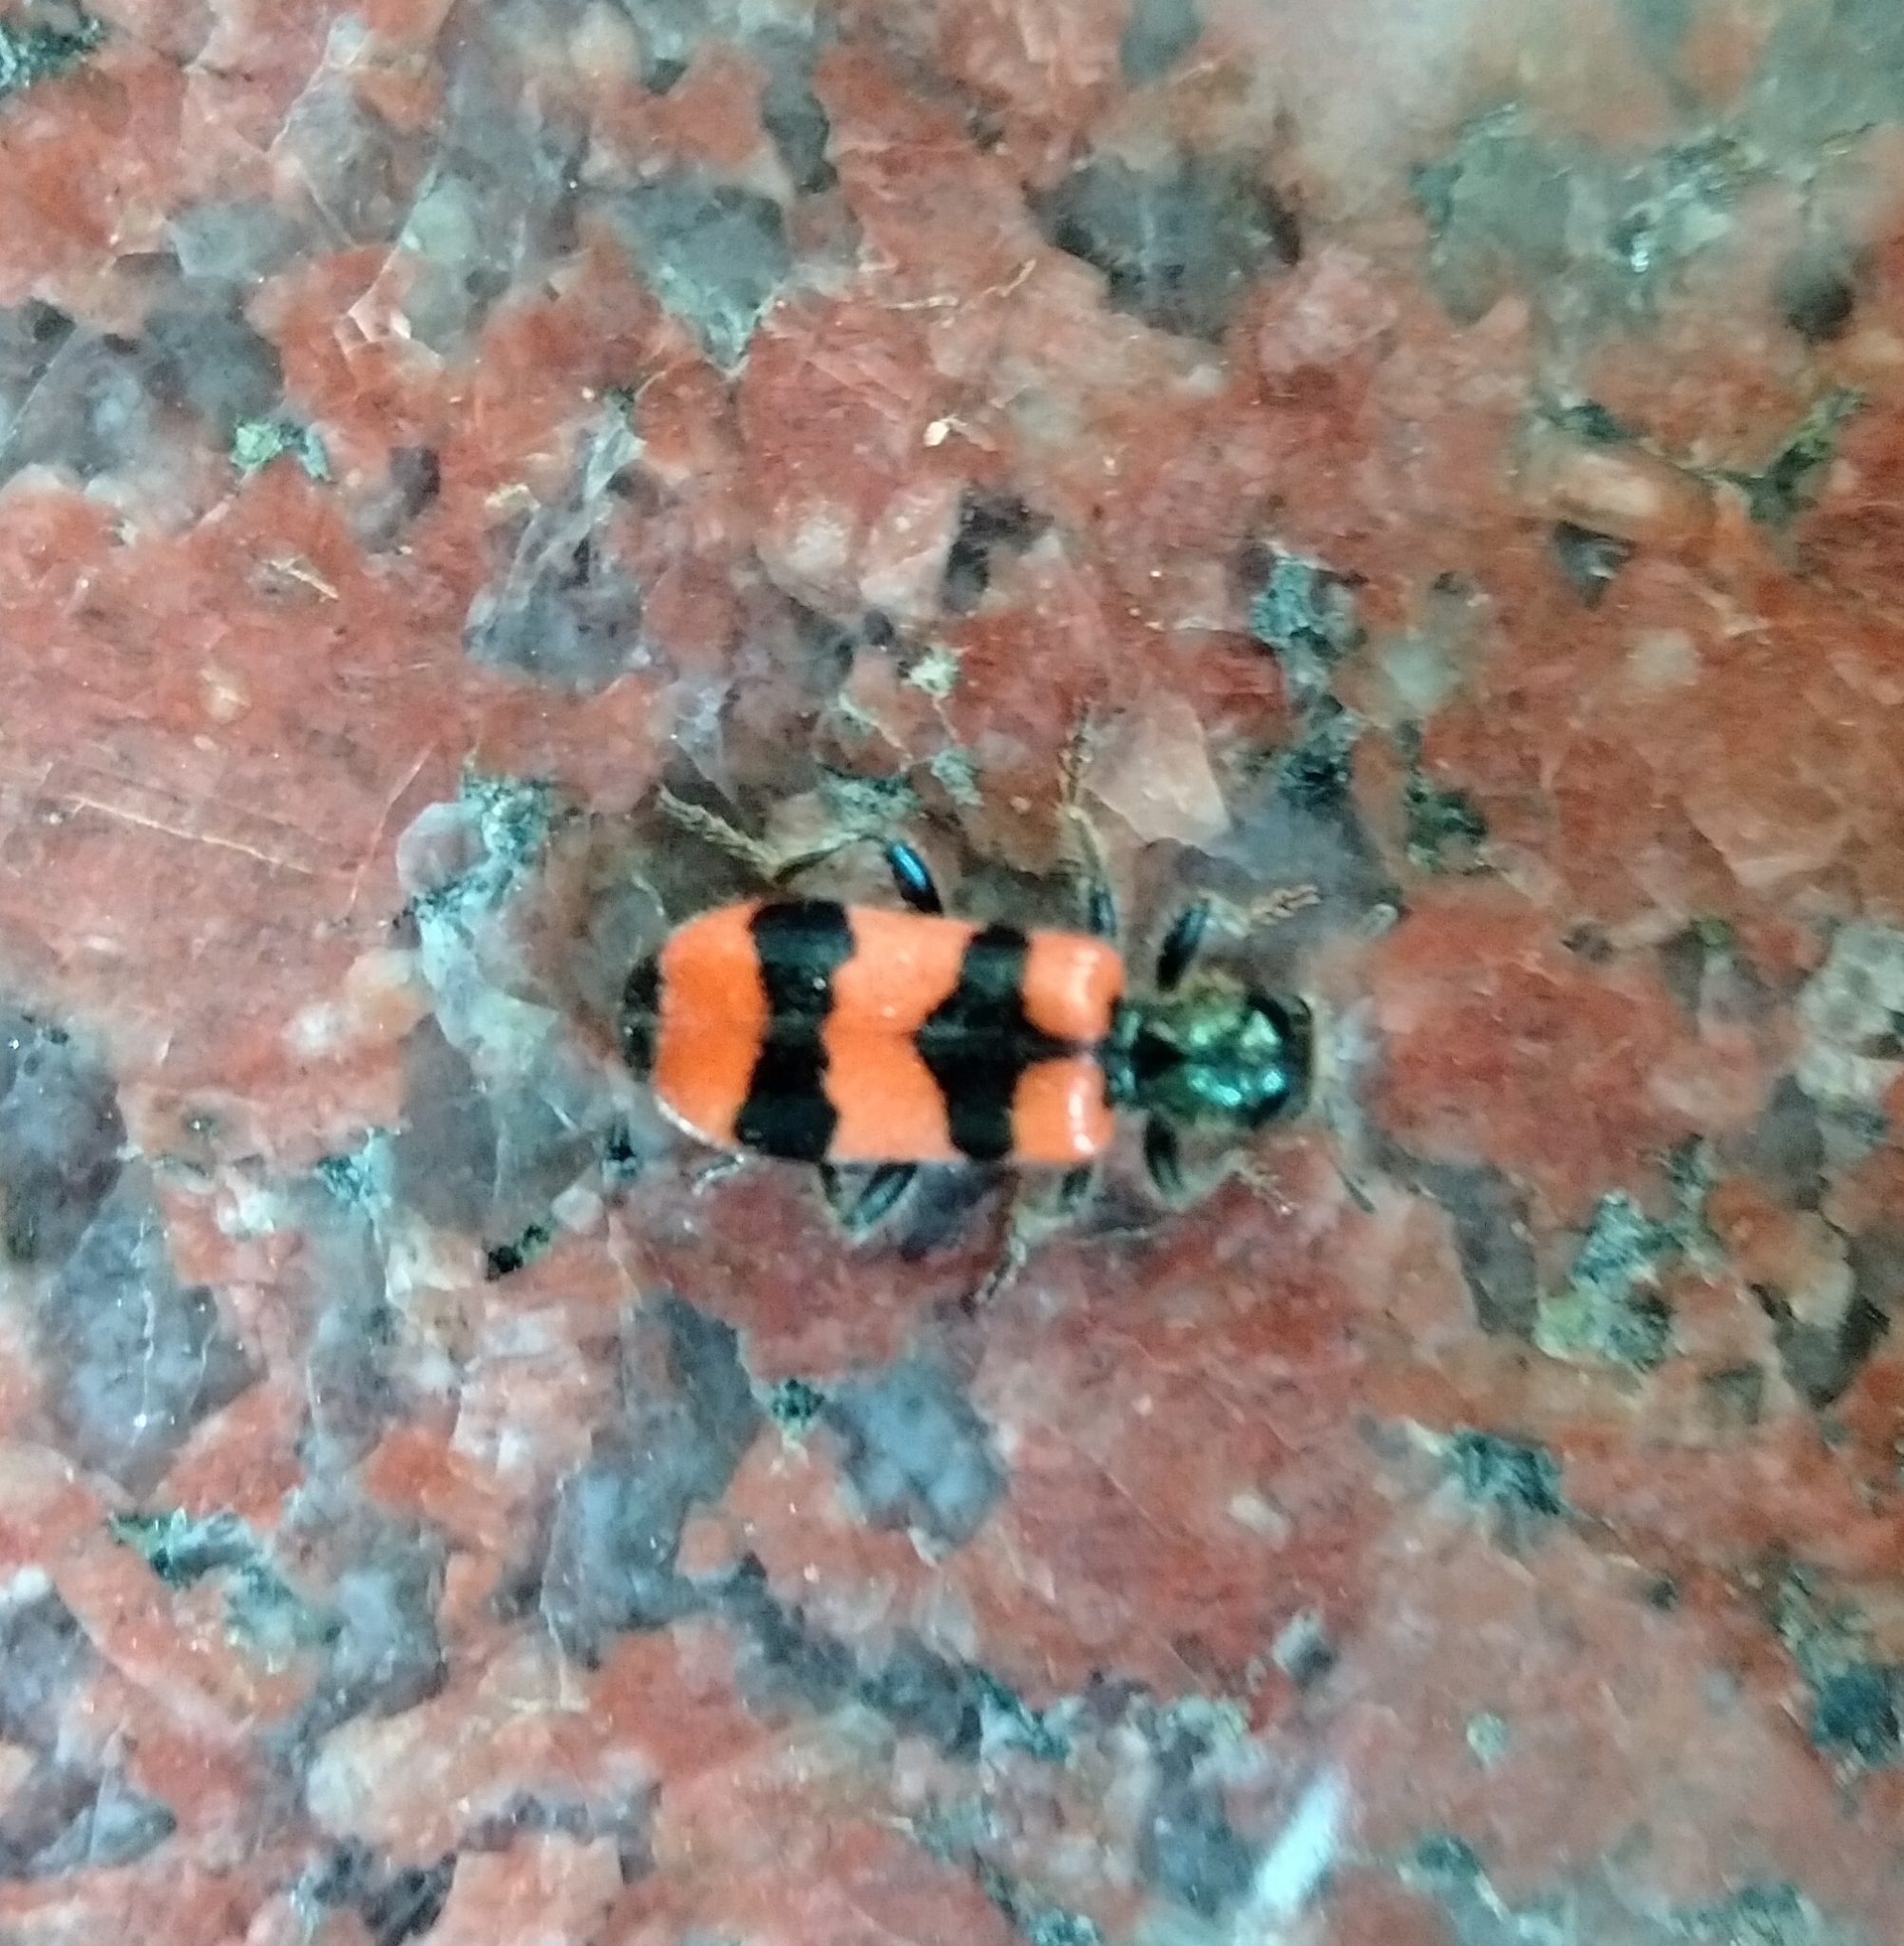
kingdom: Animalia
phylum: Arthropoda
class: Insecta
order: Coleoptera
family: Cleridae
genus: Trichodes
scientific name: Trichodes apiarius
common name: Bee-eating beetle
